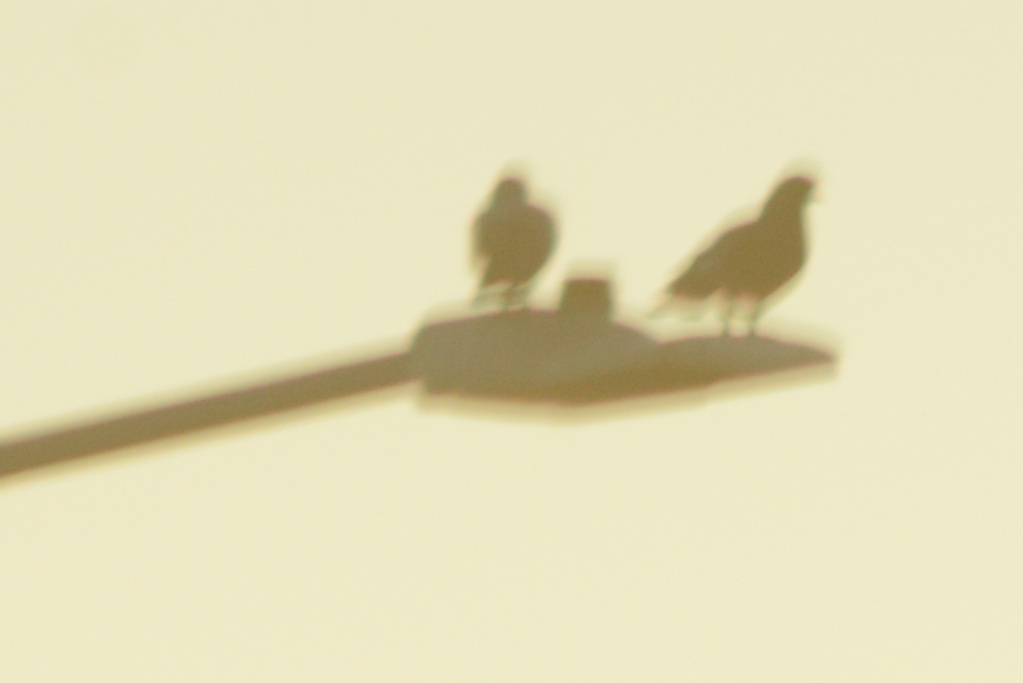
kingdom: Animalia
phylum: Chordata
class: Aves
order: Columbiformes
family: Columbidae
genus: Columba
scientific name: Columba livia
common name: Rock pigeon
